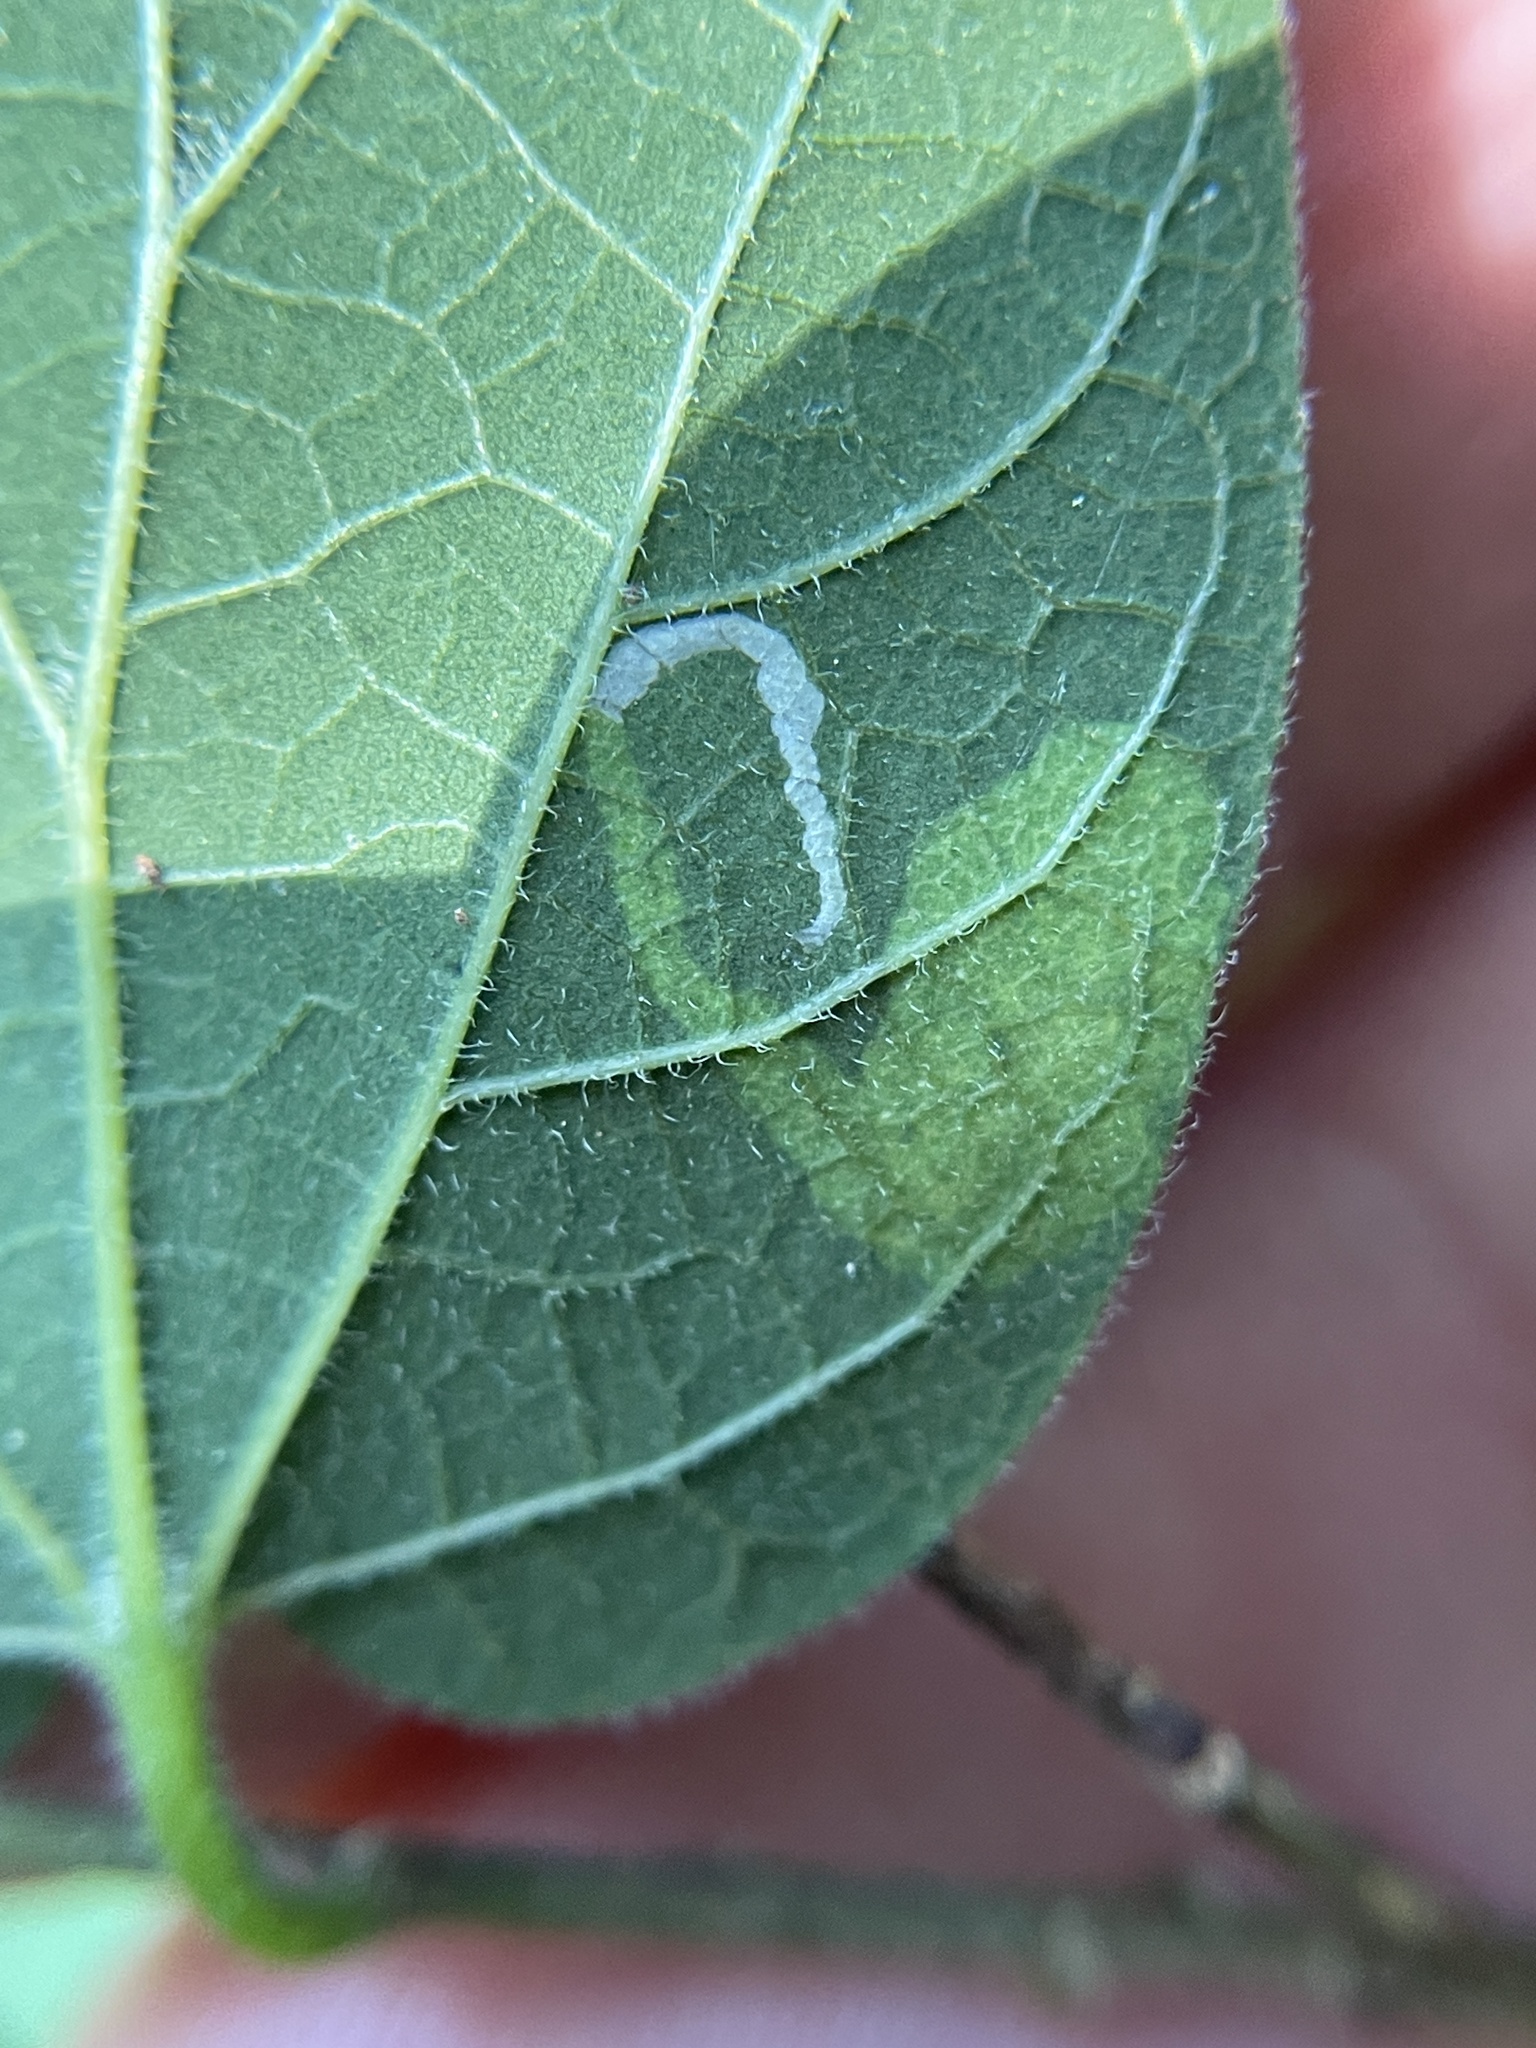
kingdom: Animalia
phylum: Arthropoda
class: Insecta
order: Lepidoptera
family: Gracillariidae
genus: Phyllonorycter
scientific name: Phyllonorycter celtisella
